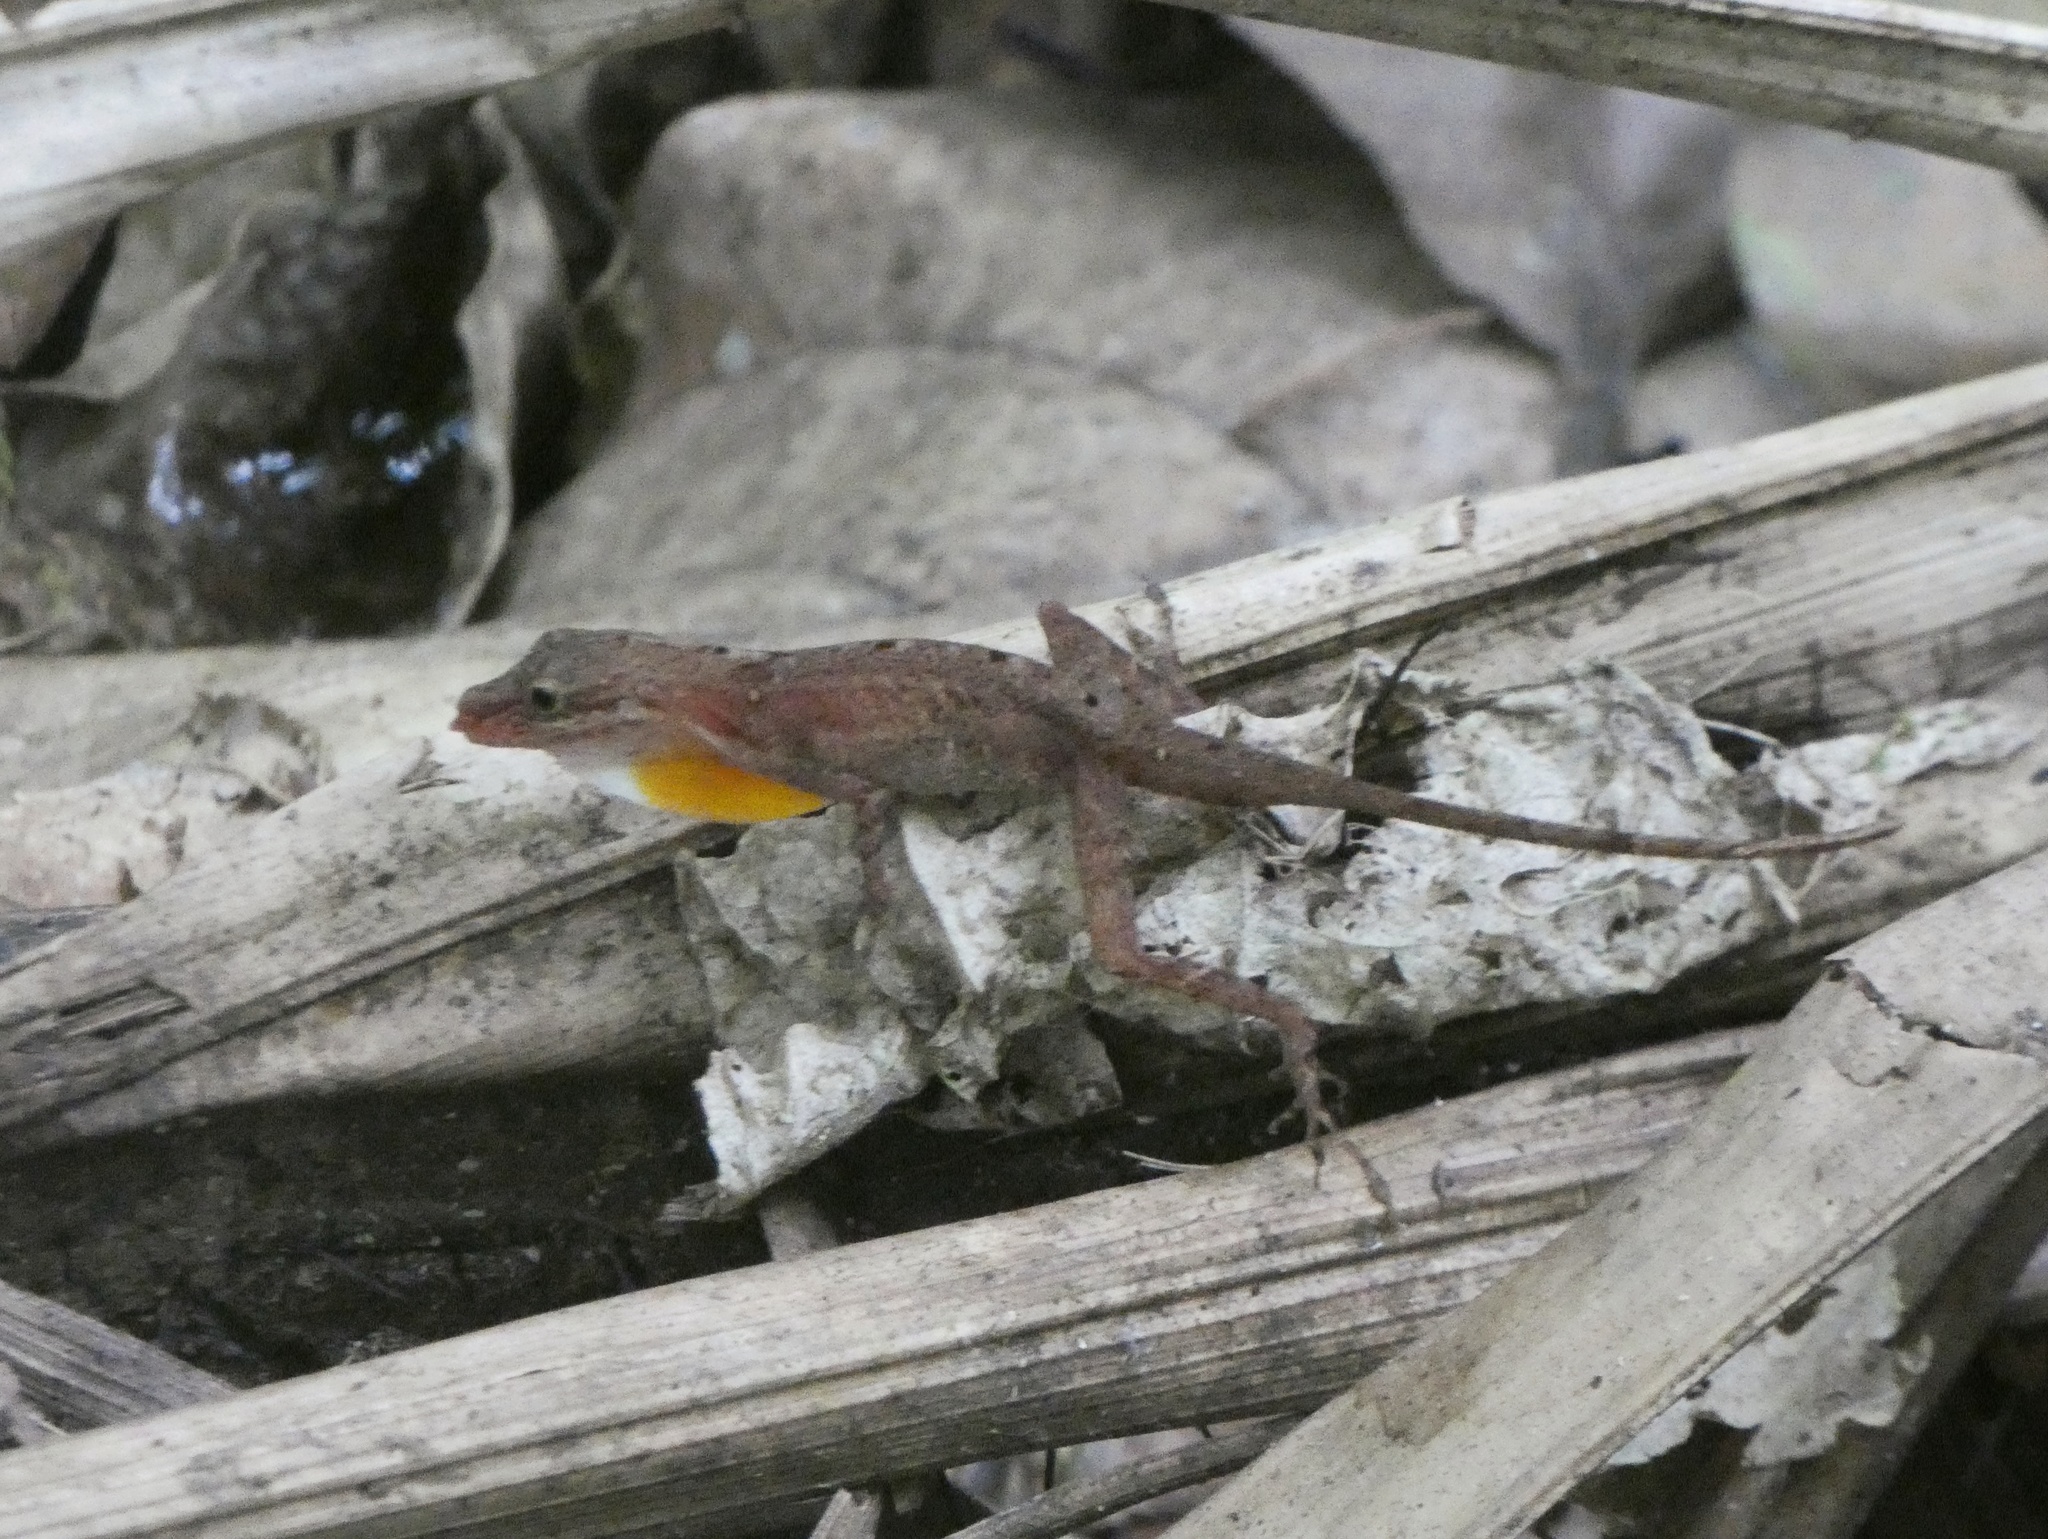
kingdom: Animalia
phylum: Chordata
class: Squamata
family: Dactyloidae
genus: Anolis
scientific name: Anolis apletophallus
